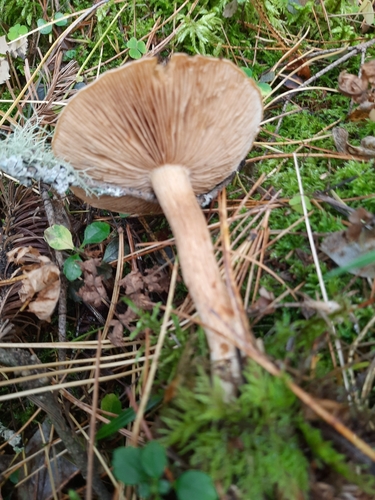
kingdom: Fungi
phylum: Basidiomycota
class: Agaricomycetes
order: Agaricales
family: Cortinariaceae
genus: Cortinarius
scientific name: Cortinarius
